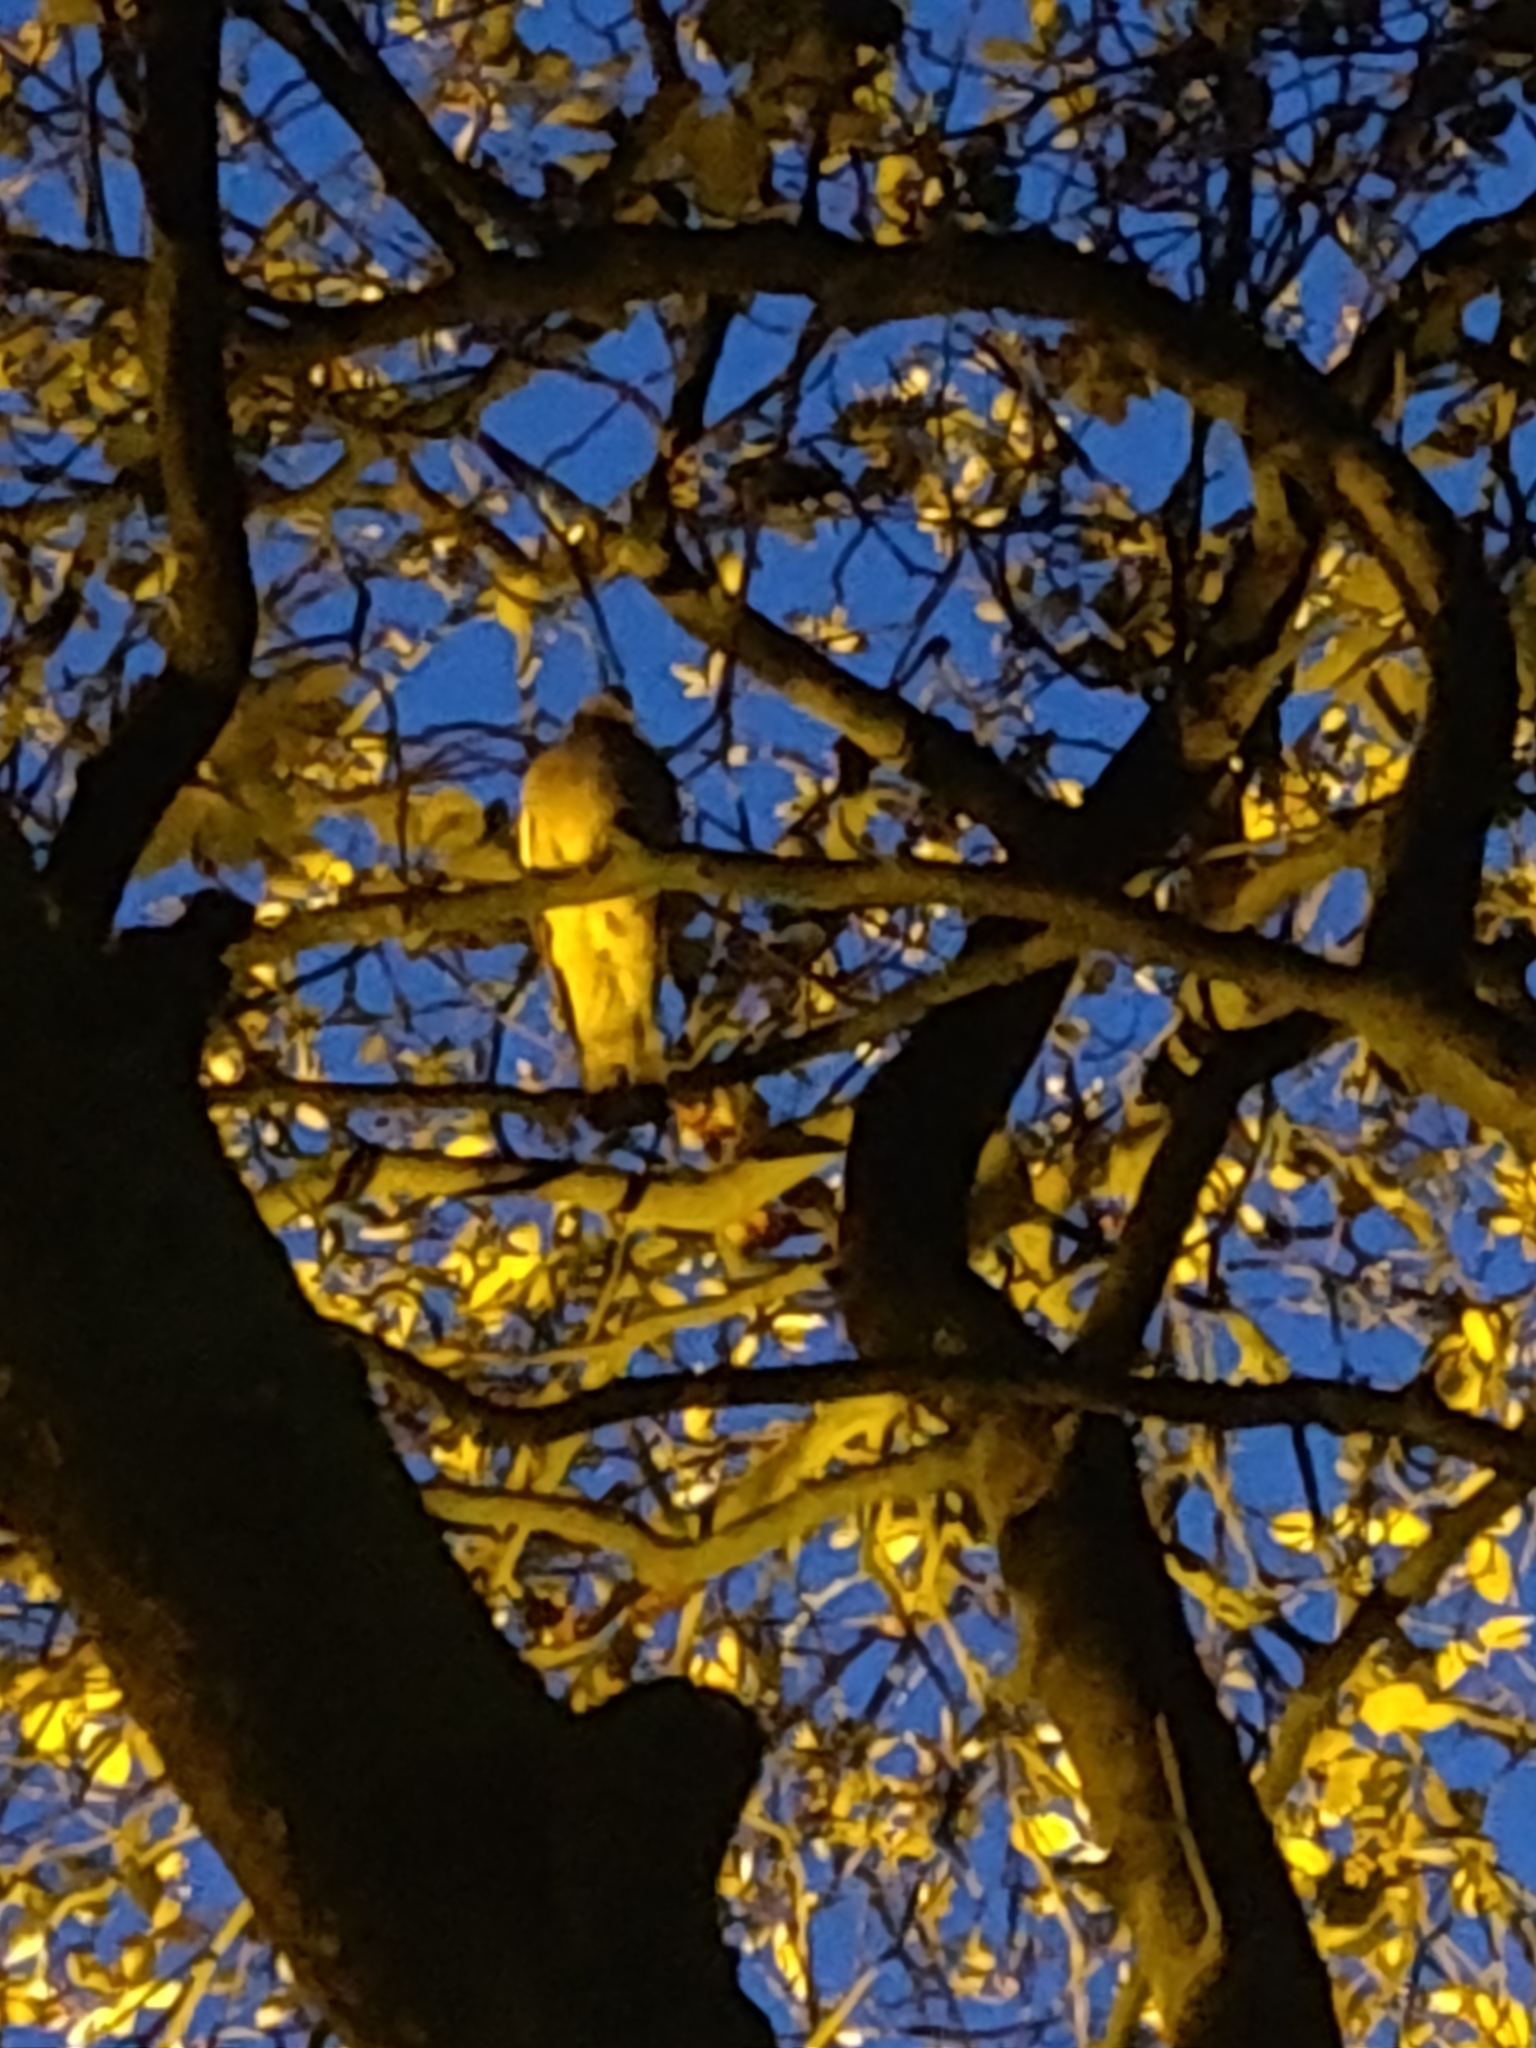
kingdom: Animalia
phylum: Chordata
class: Aves
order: Columbiformes
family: Columbidae
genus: Columba
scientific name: Columba palumbus
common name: Common wood pigeon
